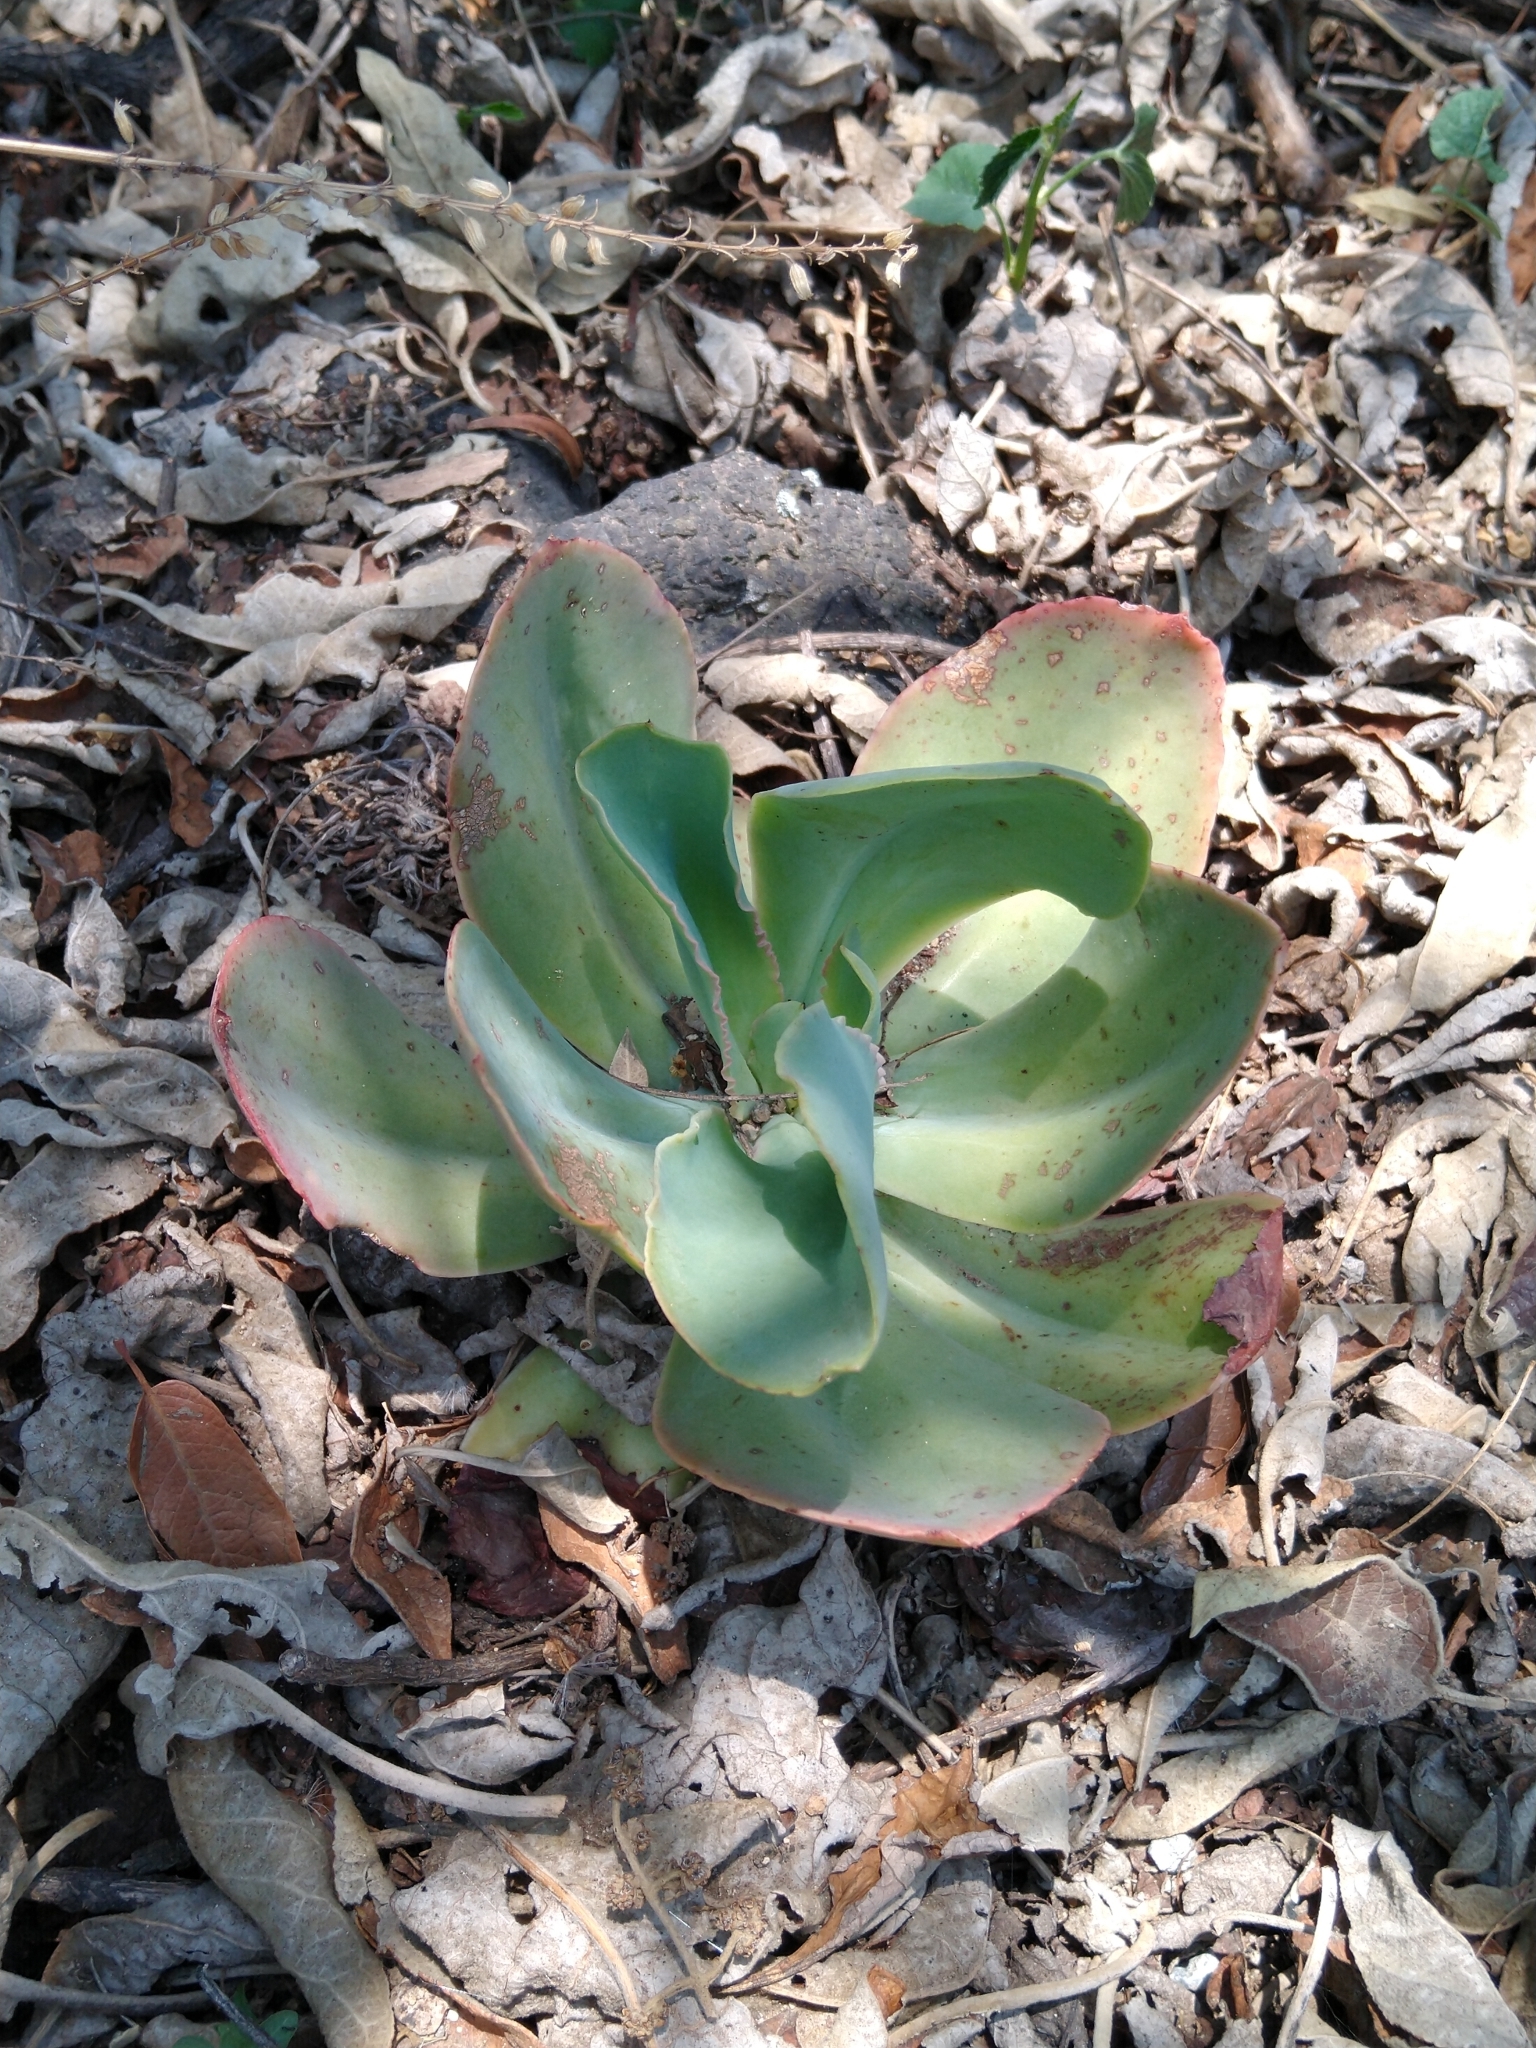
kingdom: Plantae
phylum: Tracheophyta
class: Magnoliopsida
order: Saxifragales
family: Crassulaceae
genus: Echeveria
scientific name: Echeveria gibbiflora
